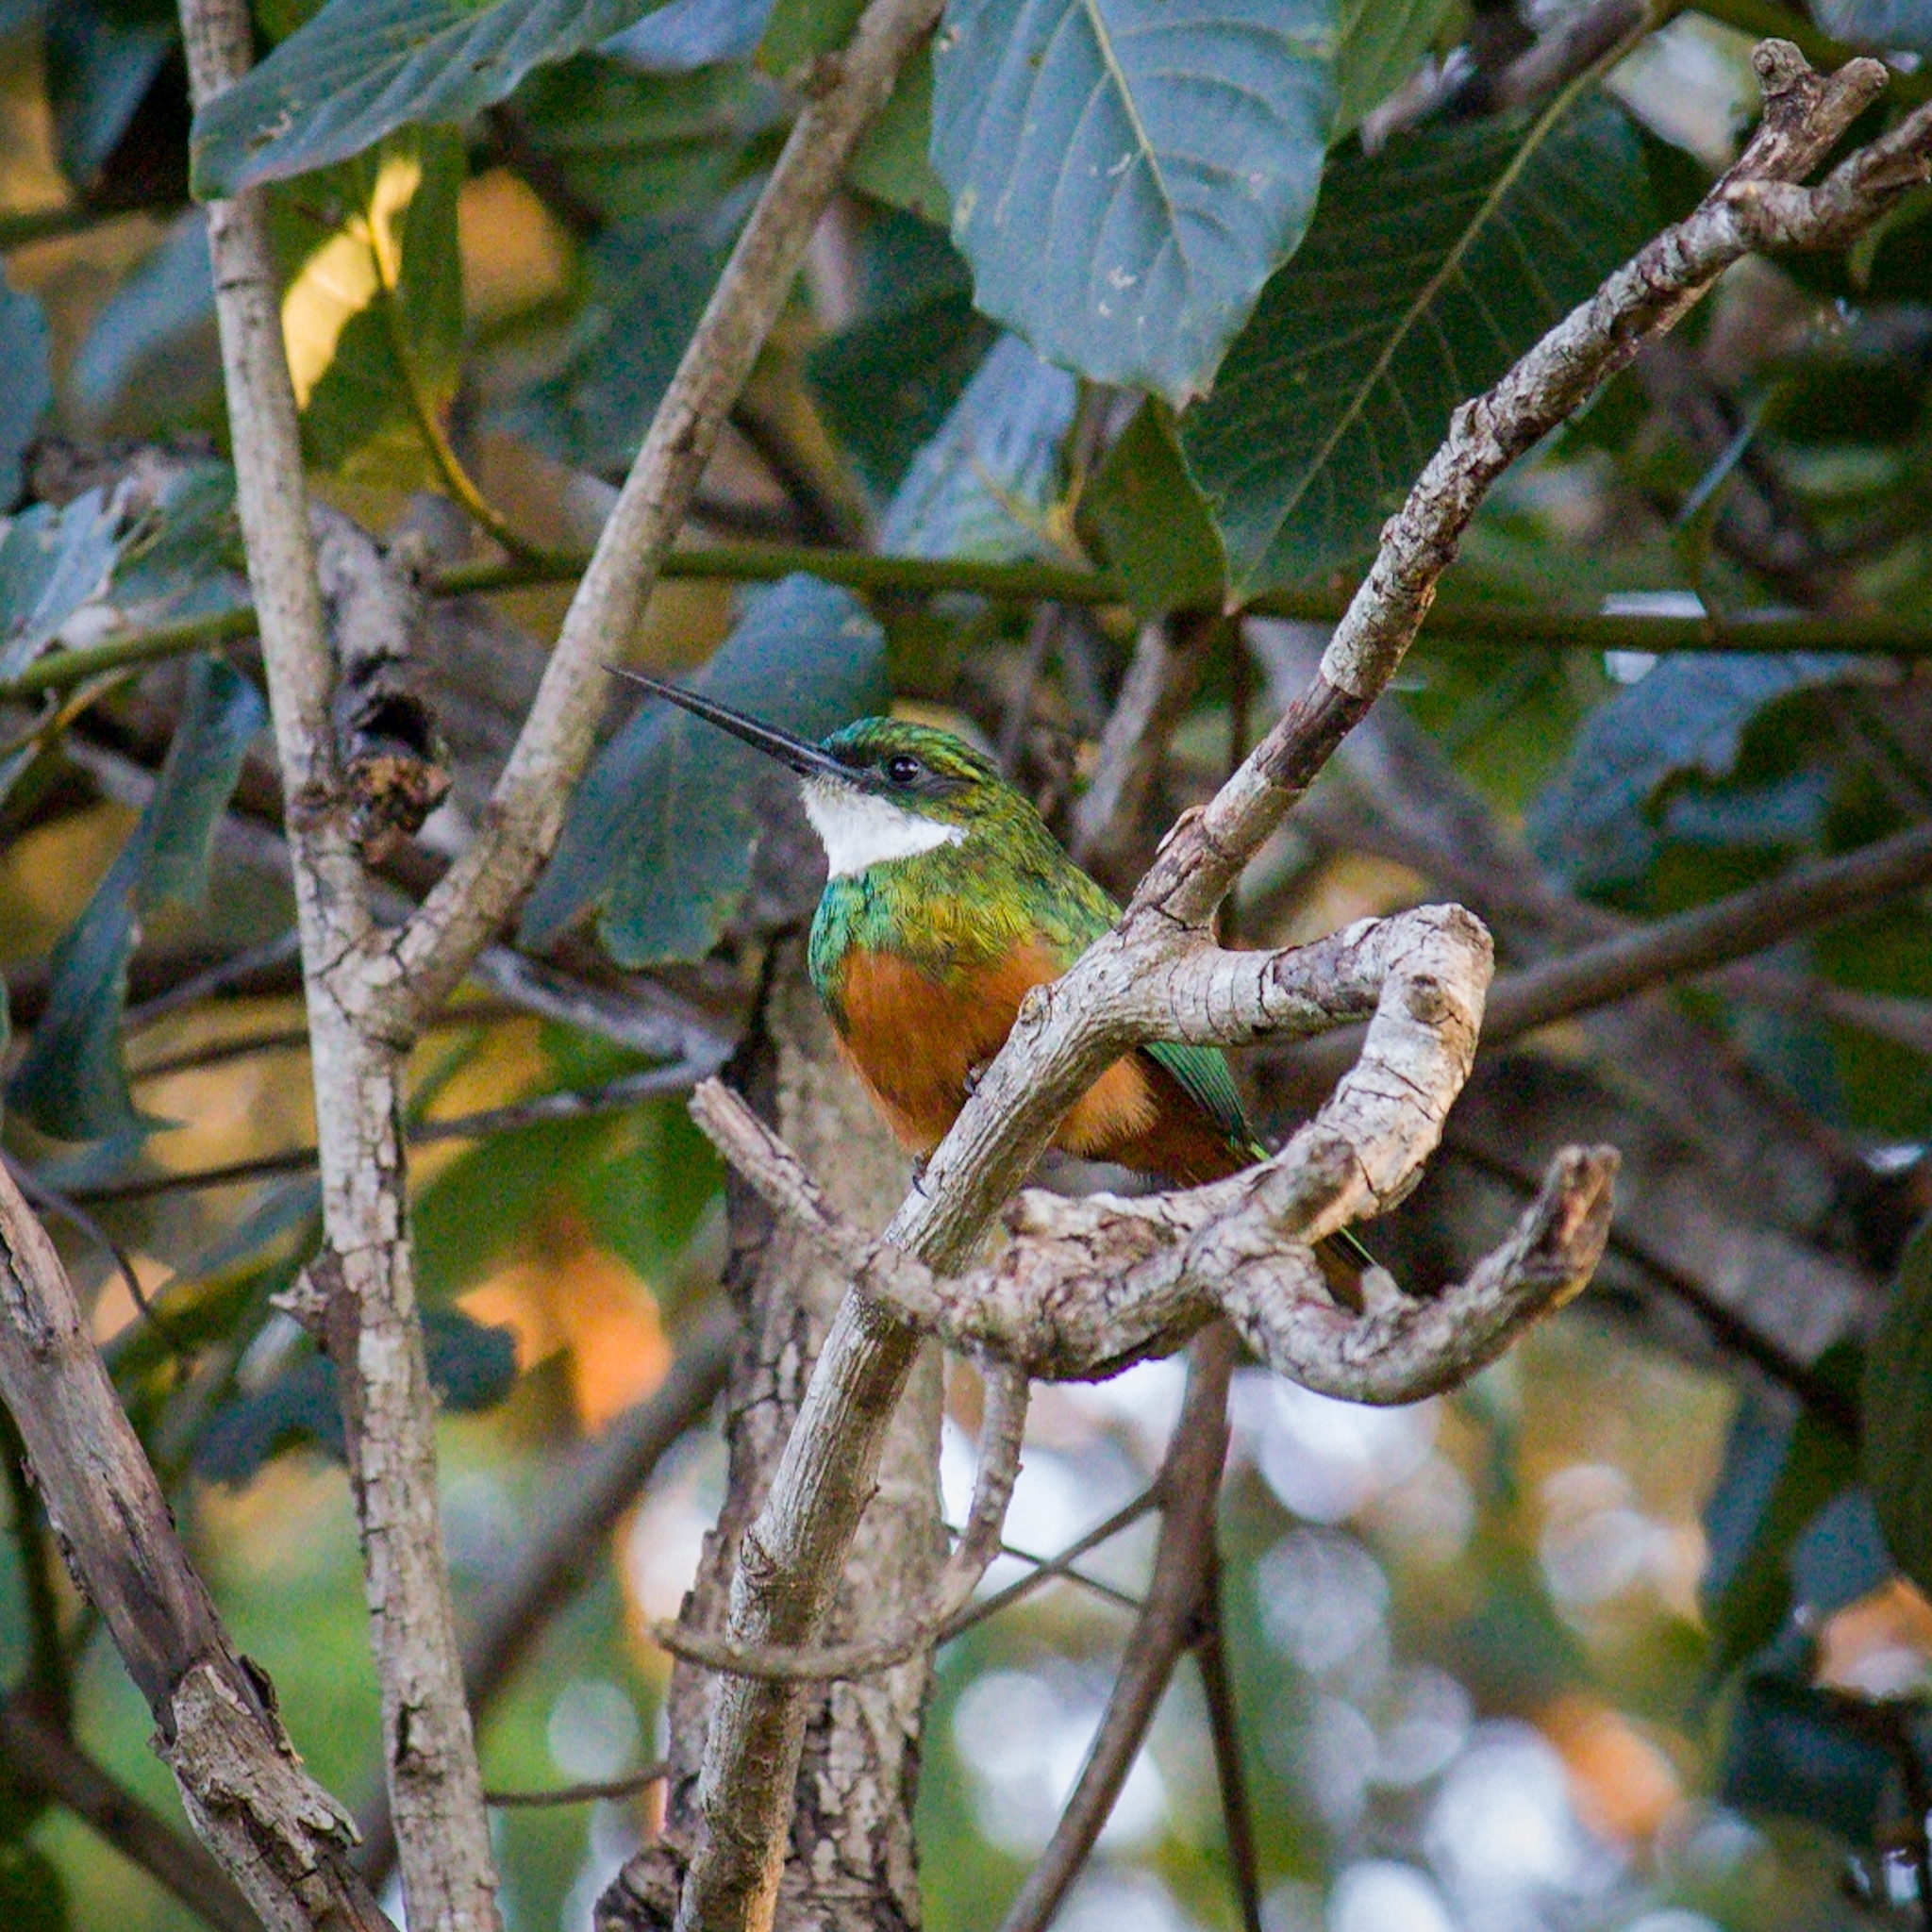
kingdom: Animalia
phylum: Chordata
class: Aves
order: Piciformes
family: Galbulidae
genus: Galbula
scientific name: Galbula ruficauda
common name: Rufous-tailed jacamar
